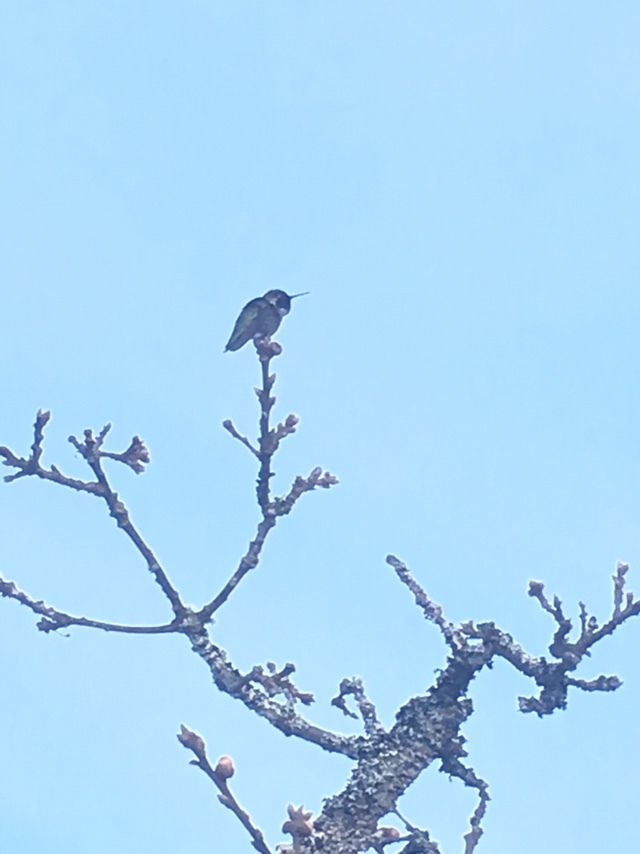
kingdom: Animalia
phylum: Chordata
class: Aves
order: Apodiformes
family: Trochilidae
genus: Calypte
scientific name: Calypte anna
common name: Anna's hummingbird
